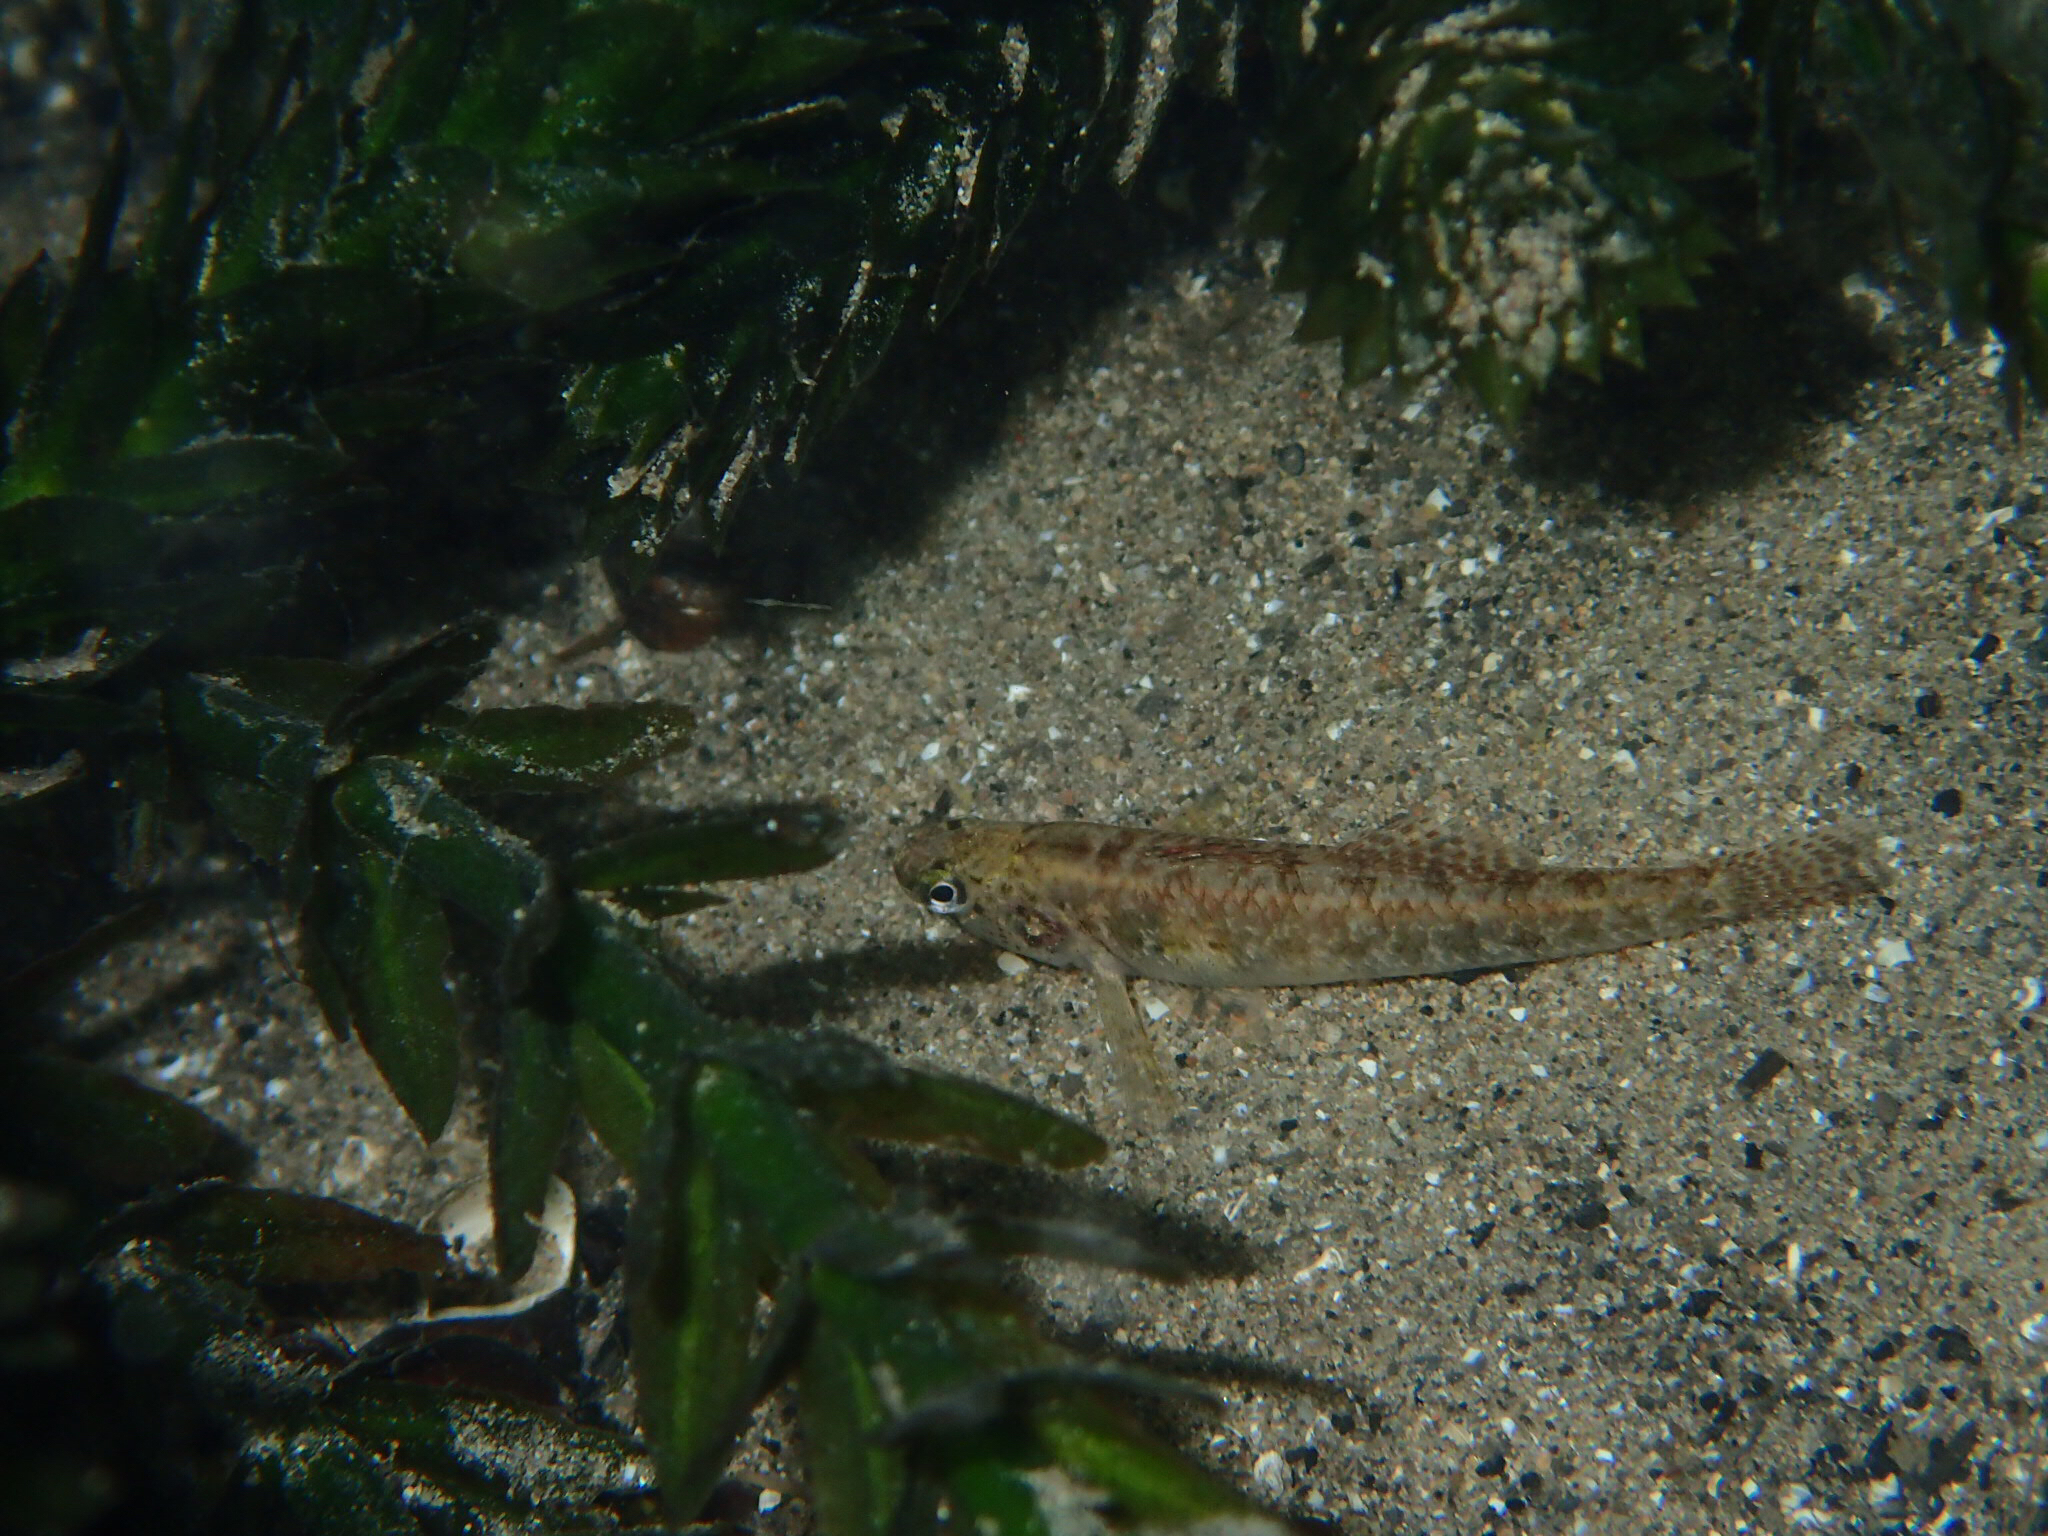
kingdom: Animalia
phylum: Chordata
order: Perciformes
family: Percidae
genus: Etheostoma
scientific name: Etheostoma fonticola
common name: Fountain darter
